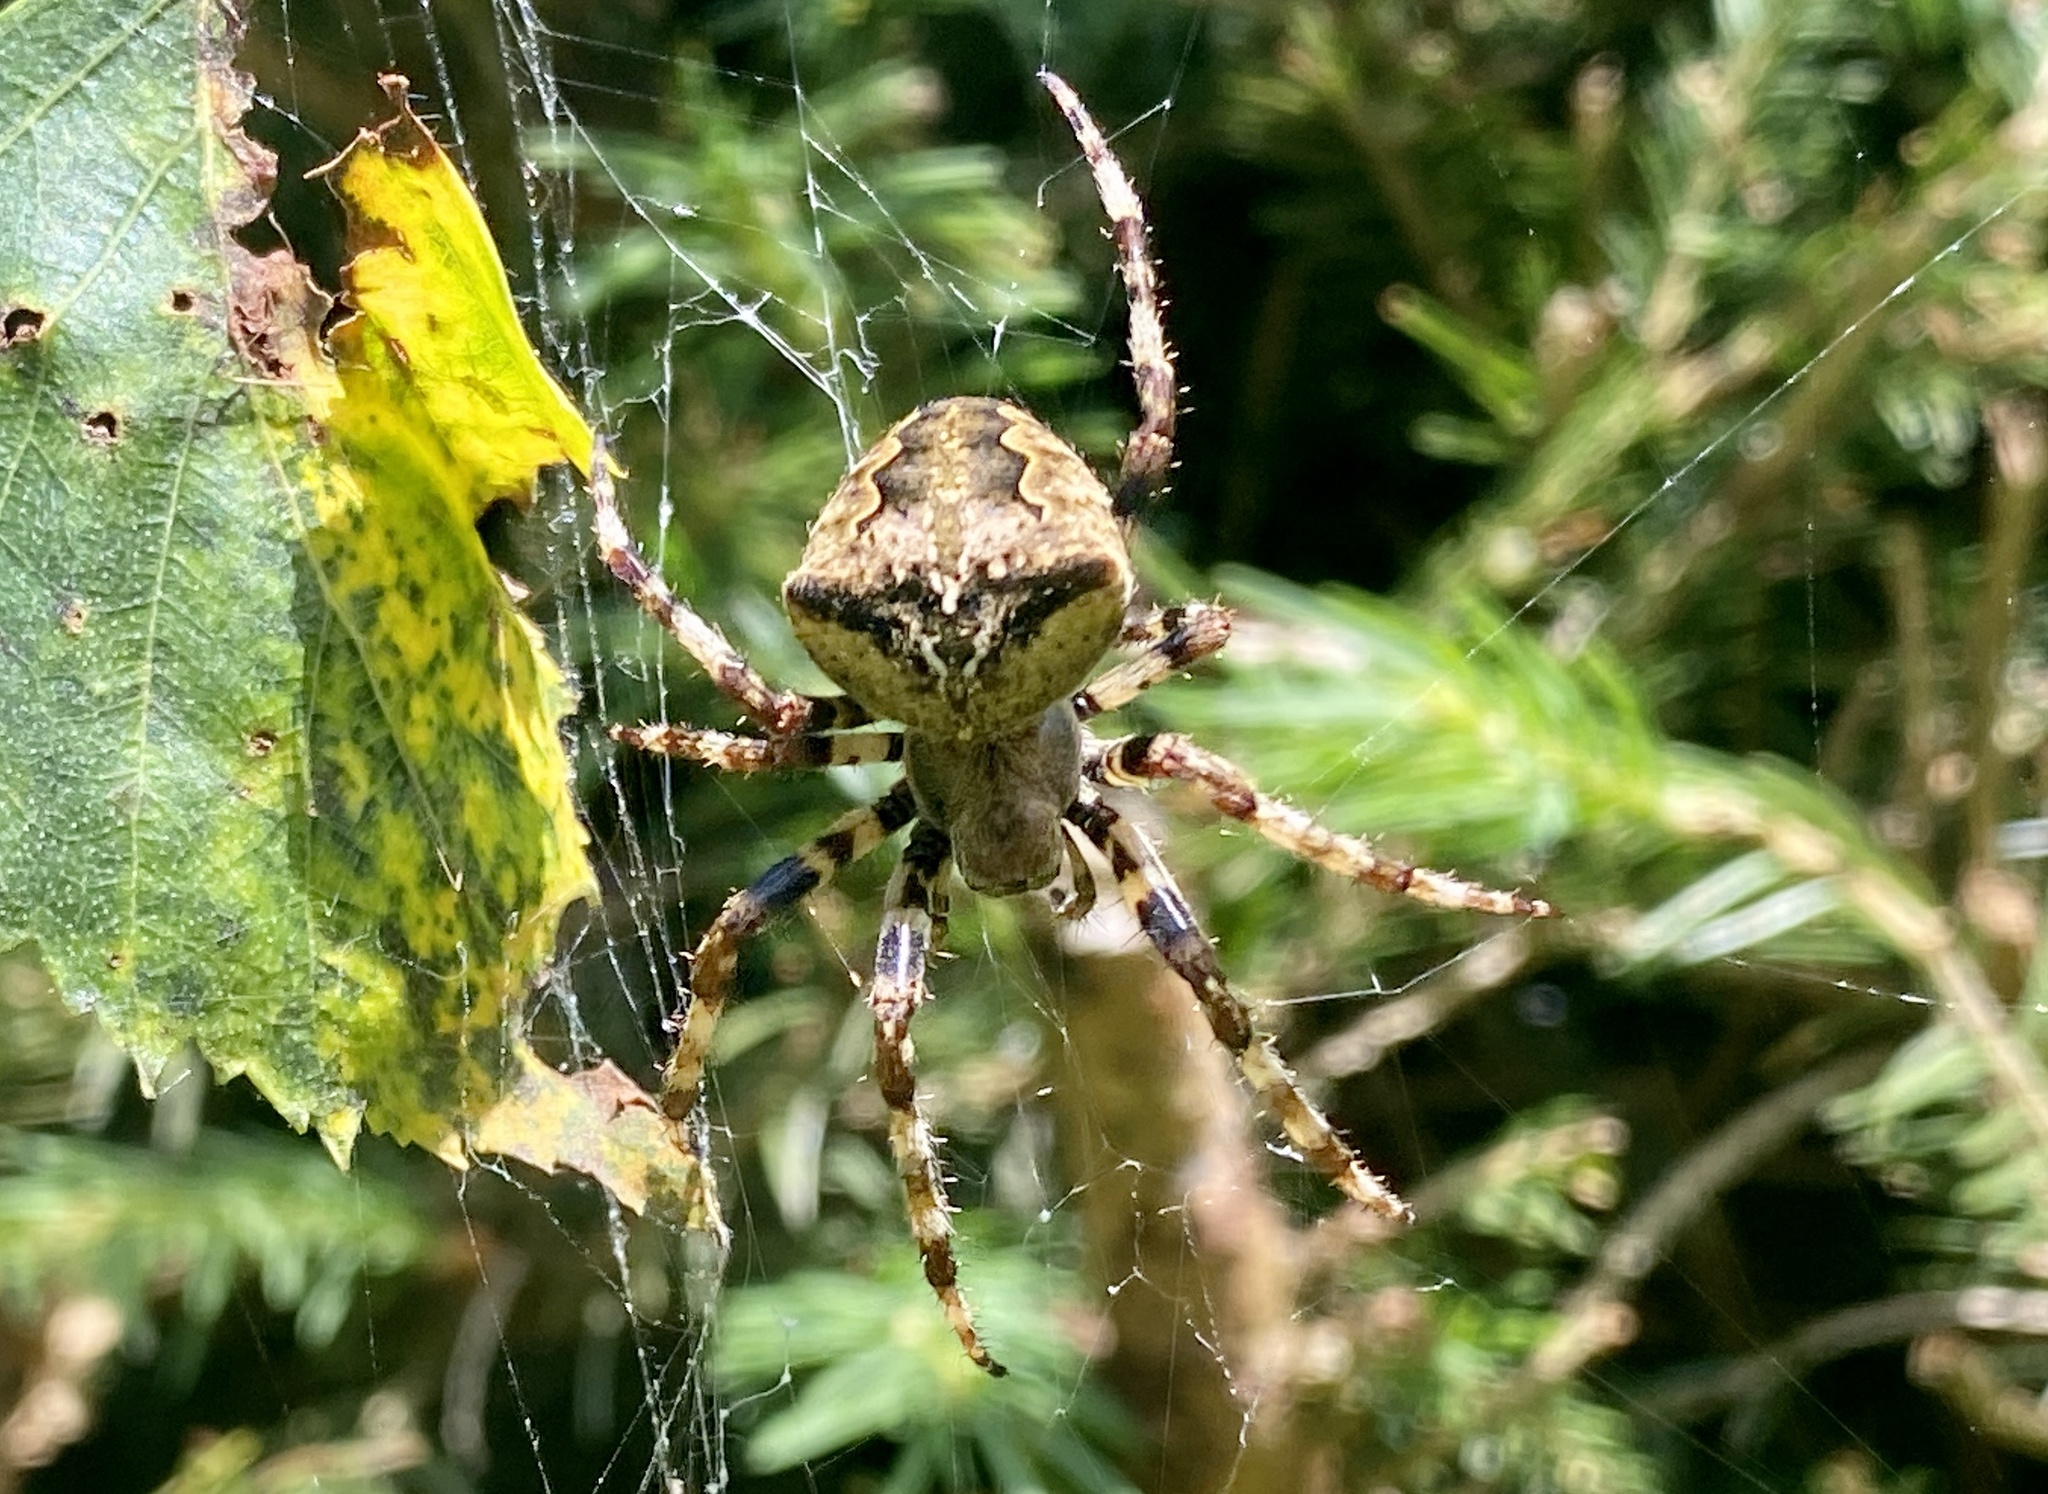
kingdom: Animalia
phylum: Arthropoda
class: Arachnida
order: Araneae
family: Araneidae
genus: Araneus
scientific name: Araneus angulatus
